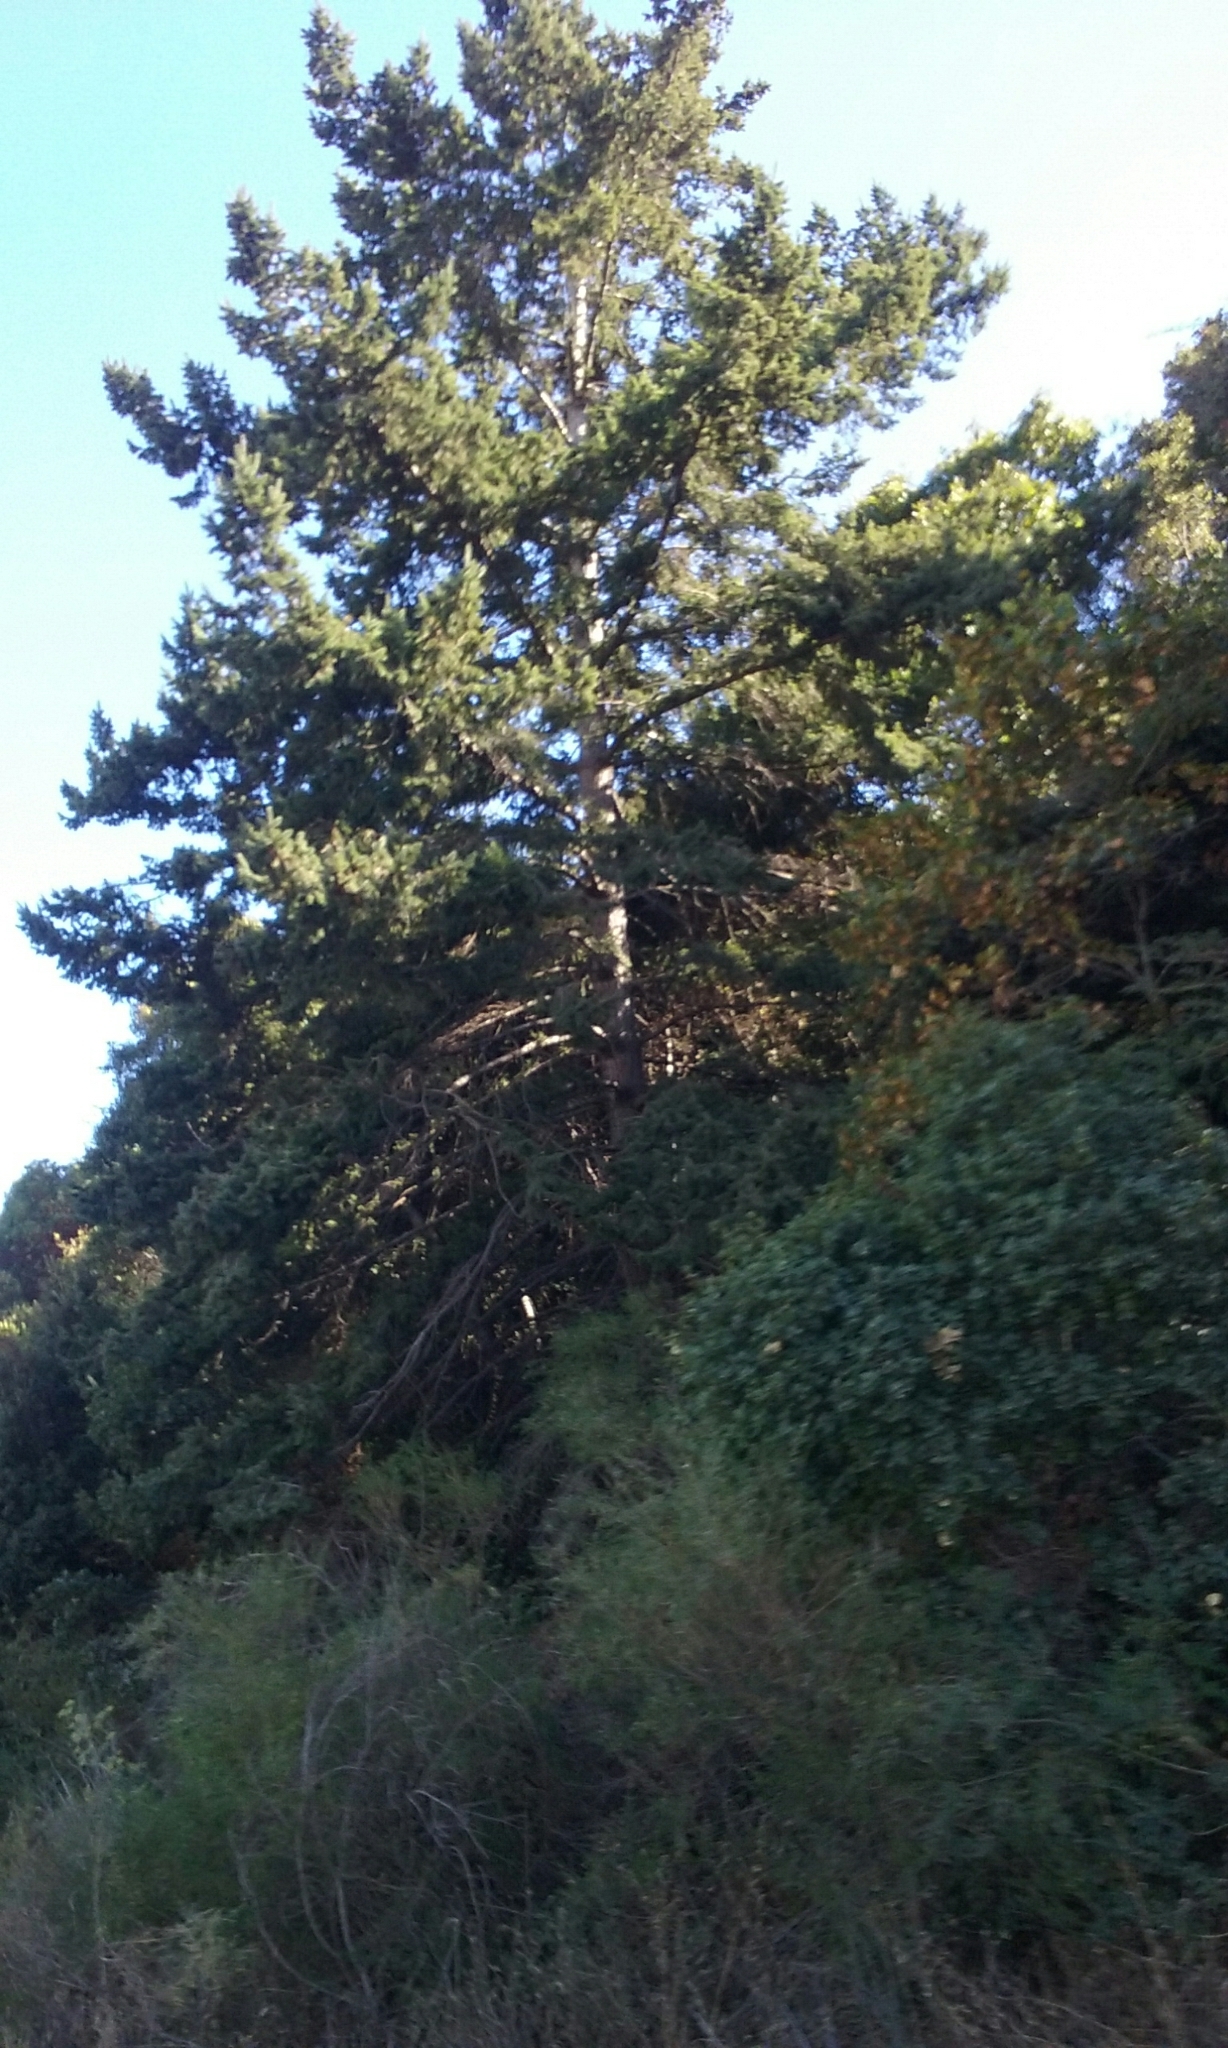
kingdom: Plantae
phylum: Tracheophyta
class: Pinopsida
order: Pinales
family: Pinaceae
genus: Pseudotsuga
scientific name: Pseudotsuga menziesii
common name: Douglas fir
